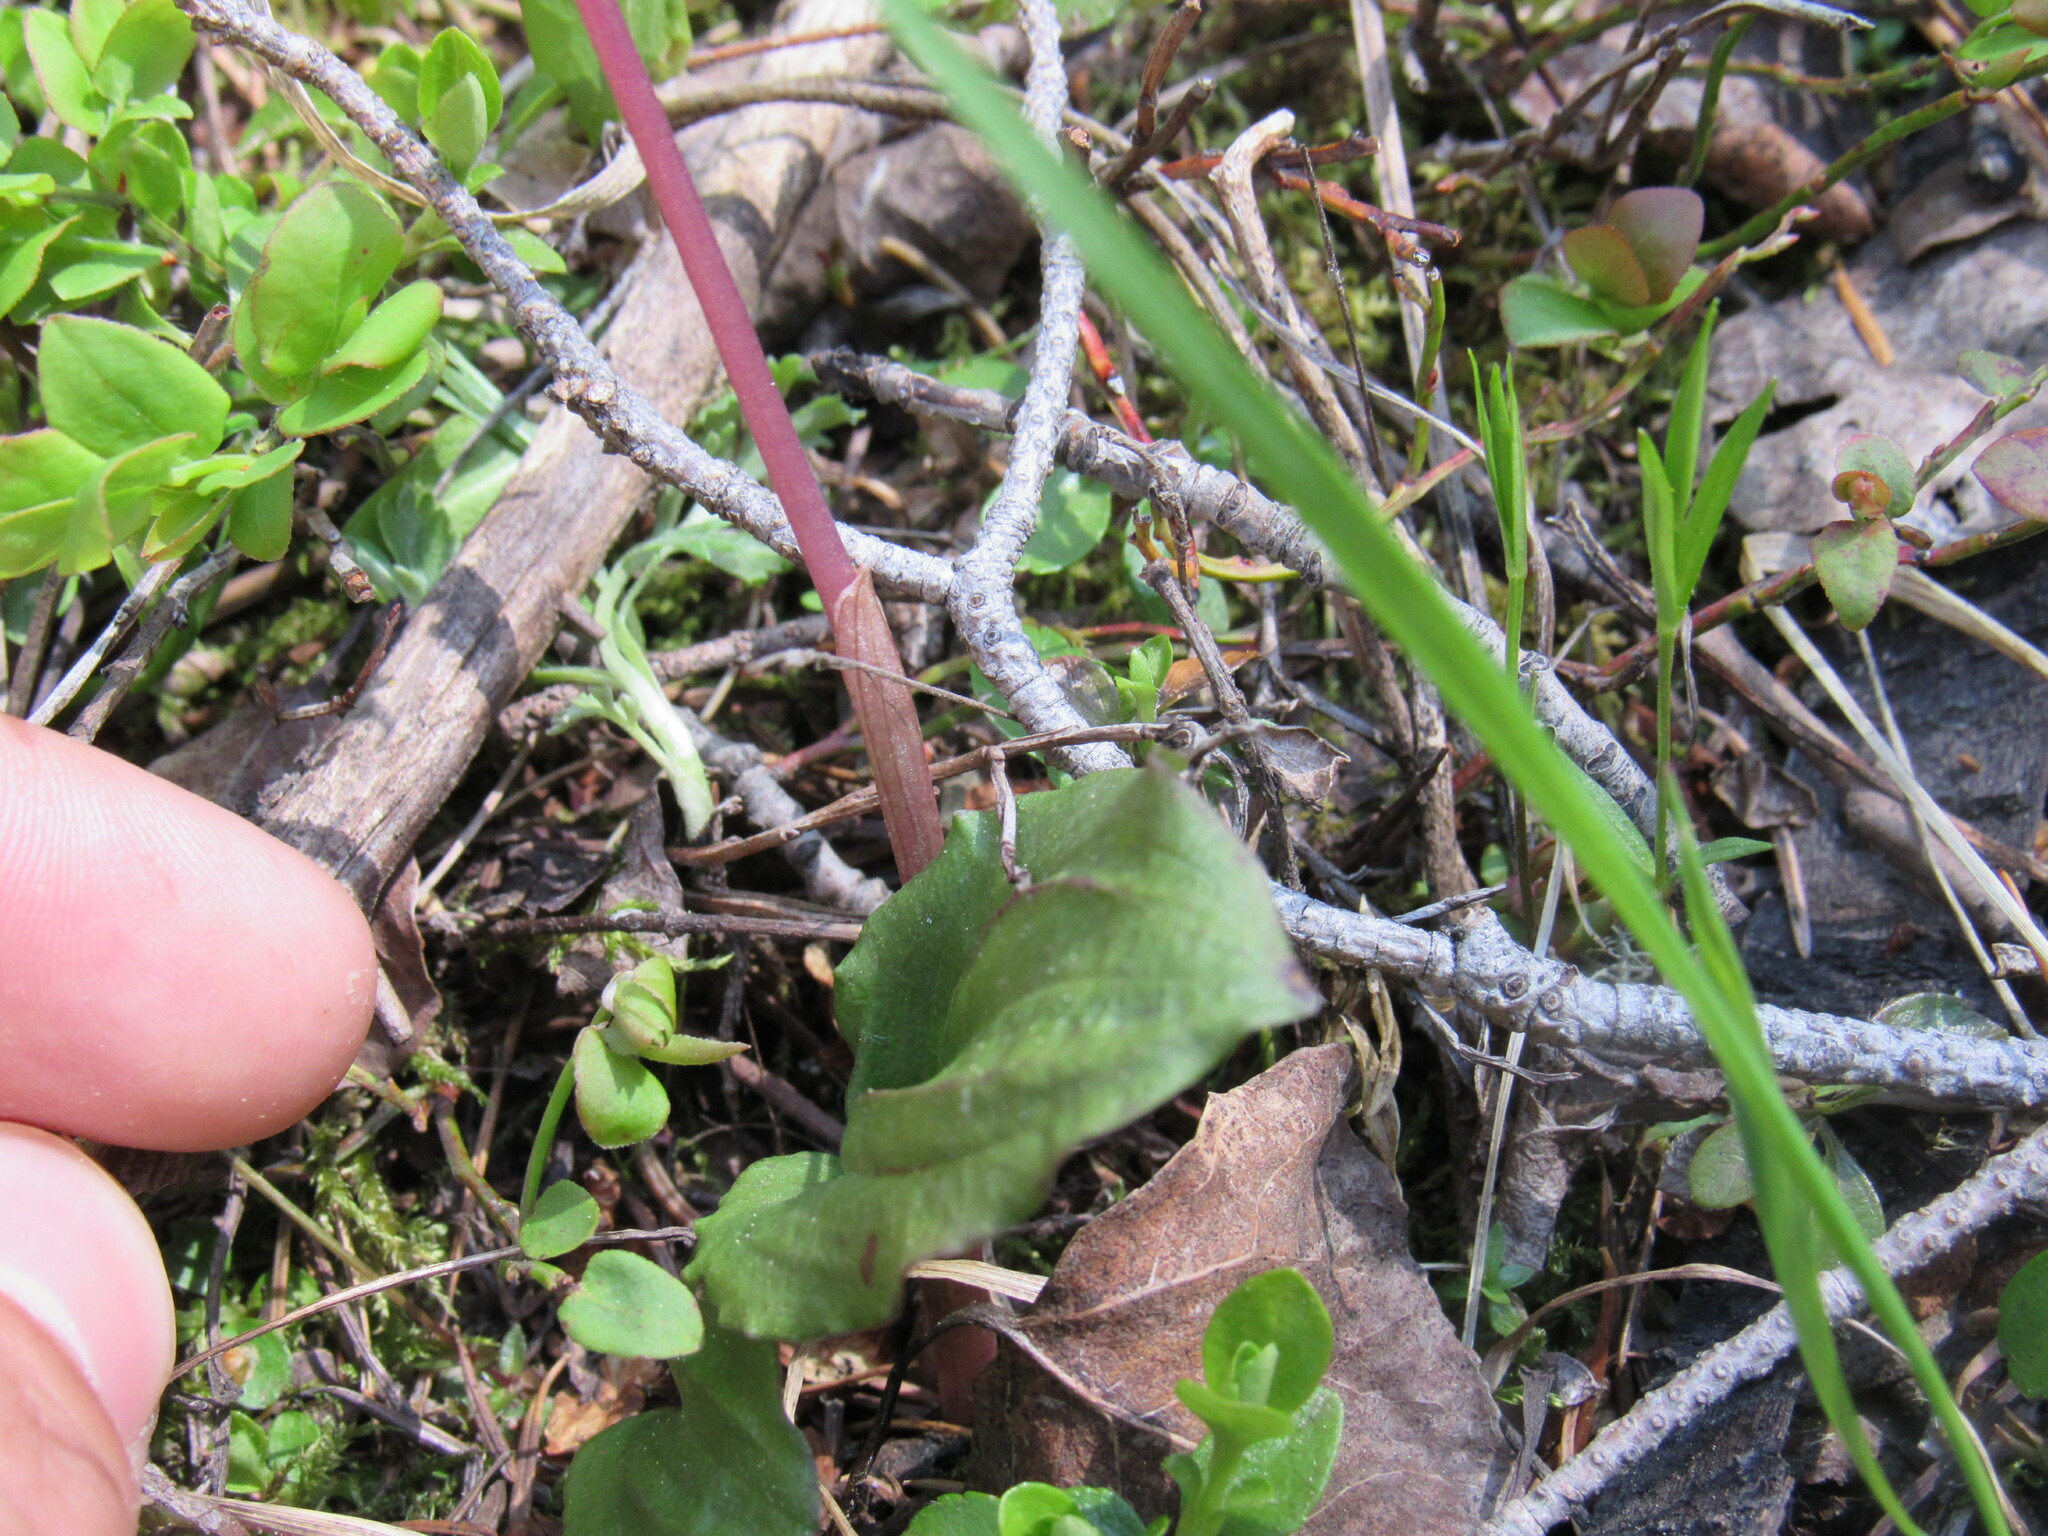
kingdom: Plantae
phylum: Tracheophyta
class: Liliopsida
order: Asparagales
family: Orchidaceae
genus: Calypso
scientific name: Calypso bulbosa
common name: Calypso
